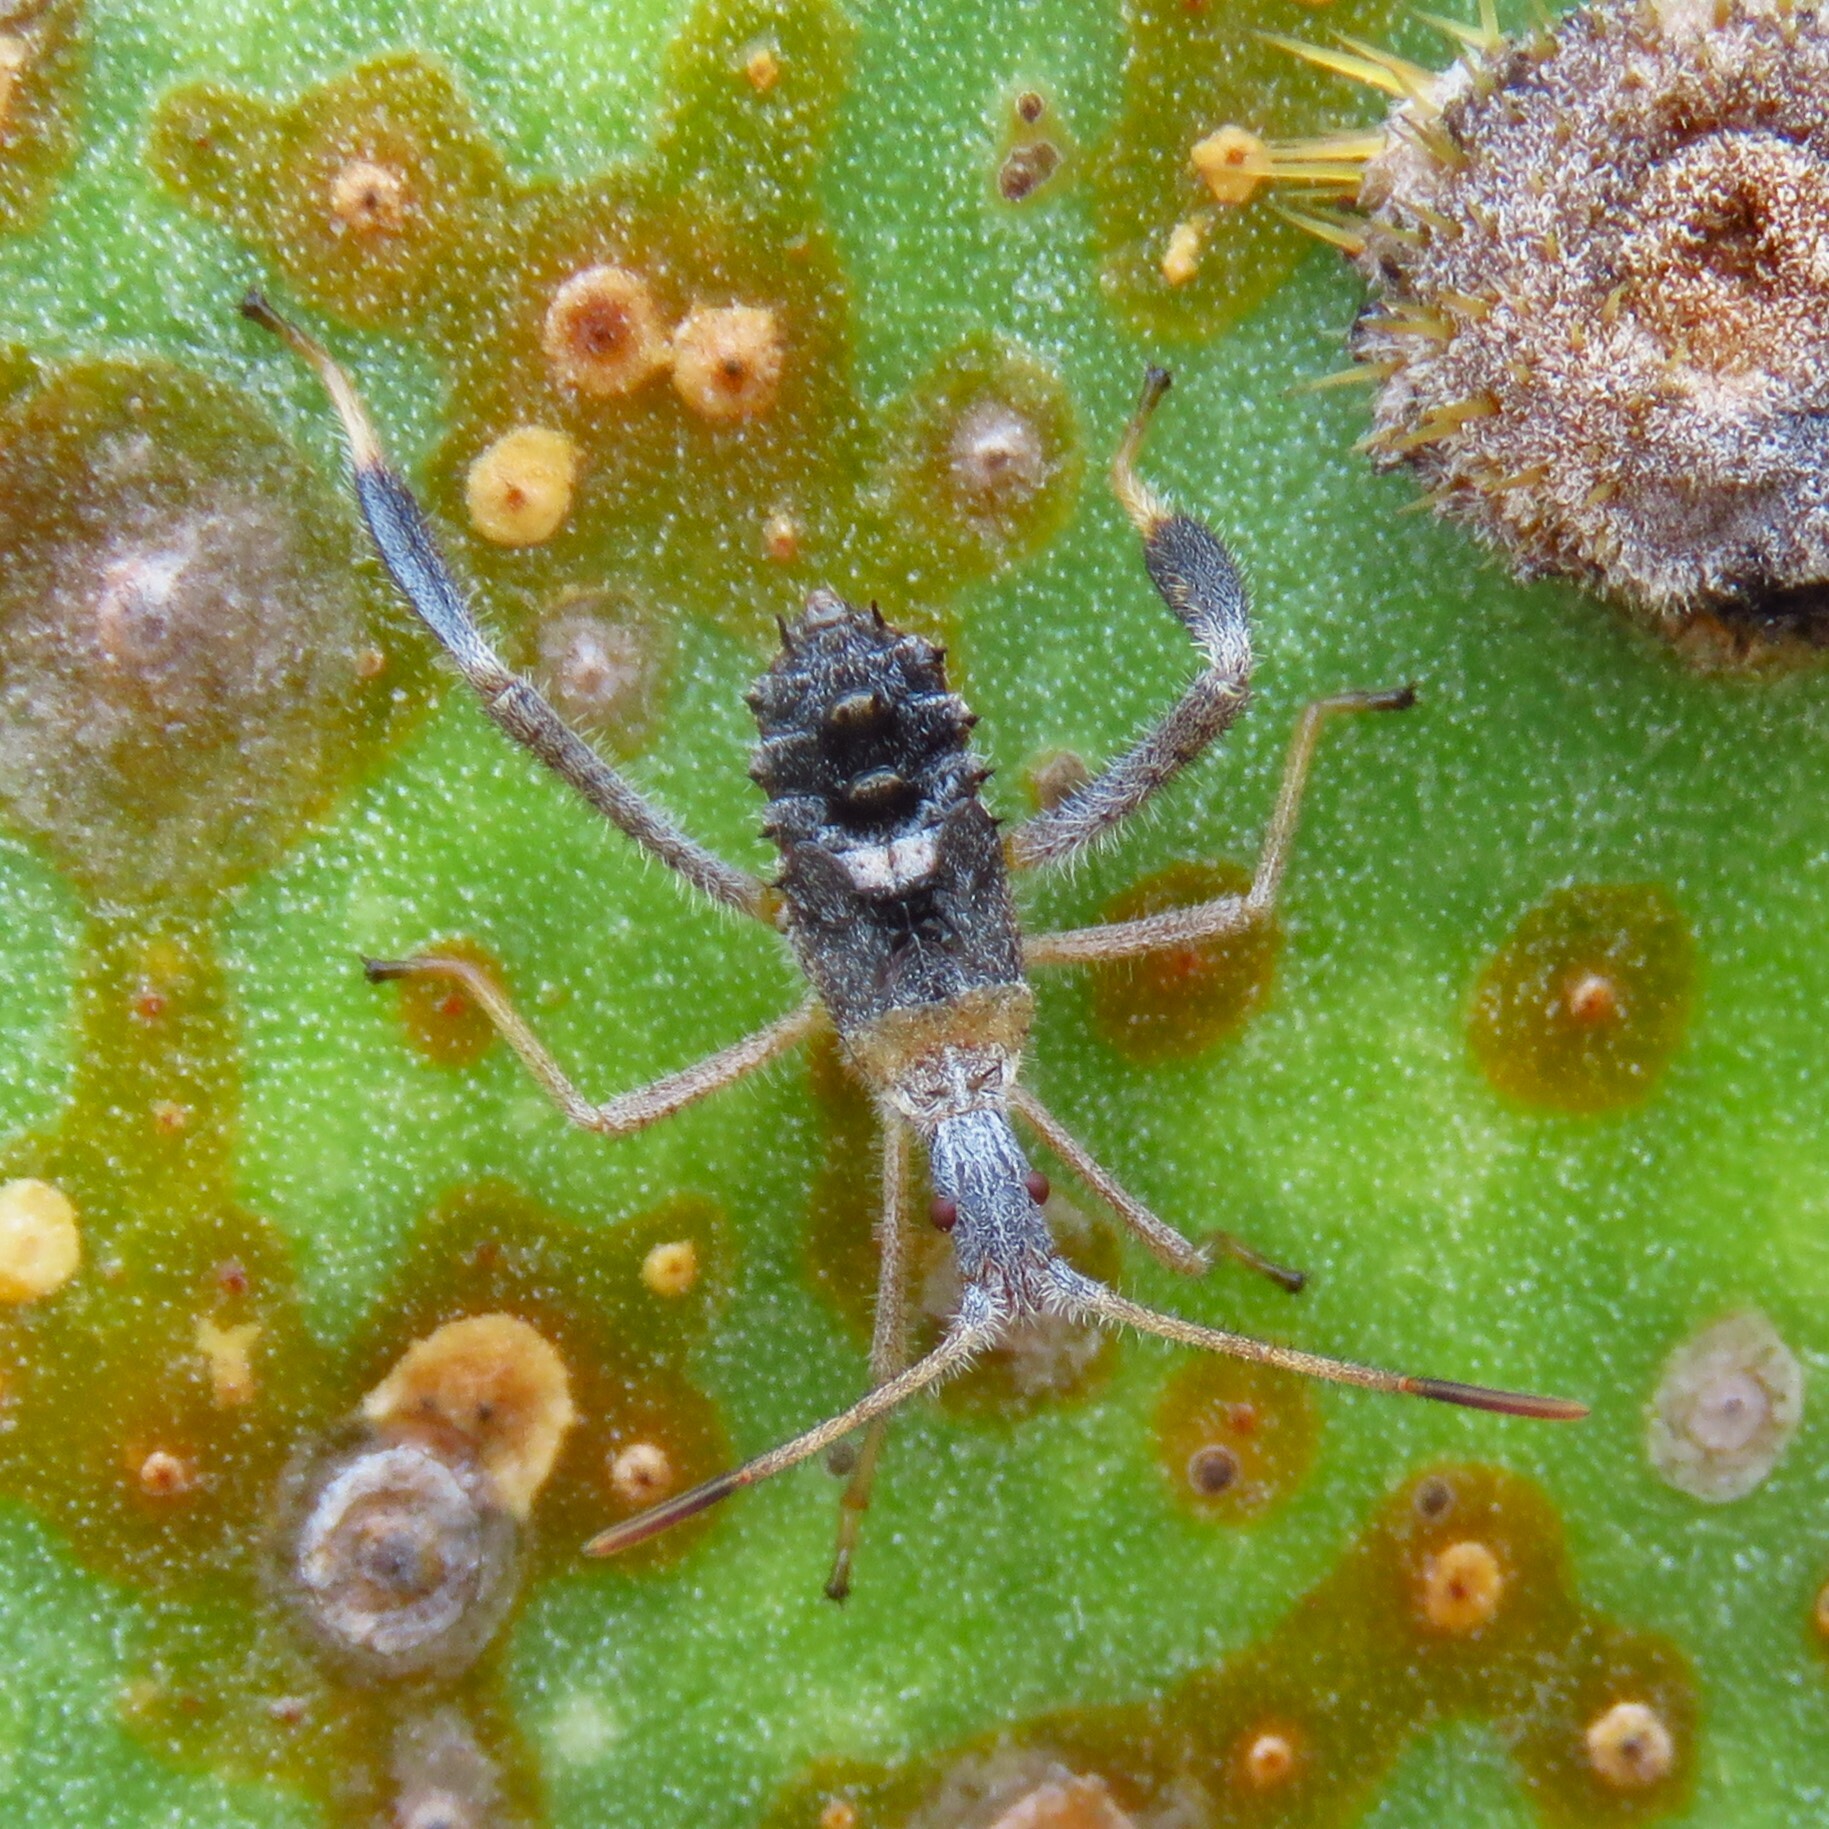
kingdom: Animalia
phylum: Arthropoda
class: Insecta
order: Hemiptera
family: Coreidae
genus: Narnia
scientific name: Narnia femorata
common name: Leaf-footed cactus bug
